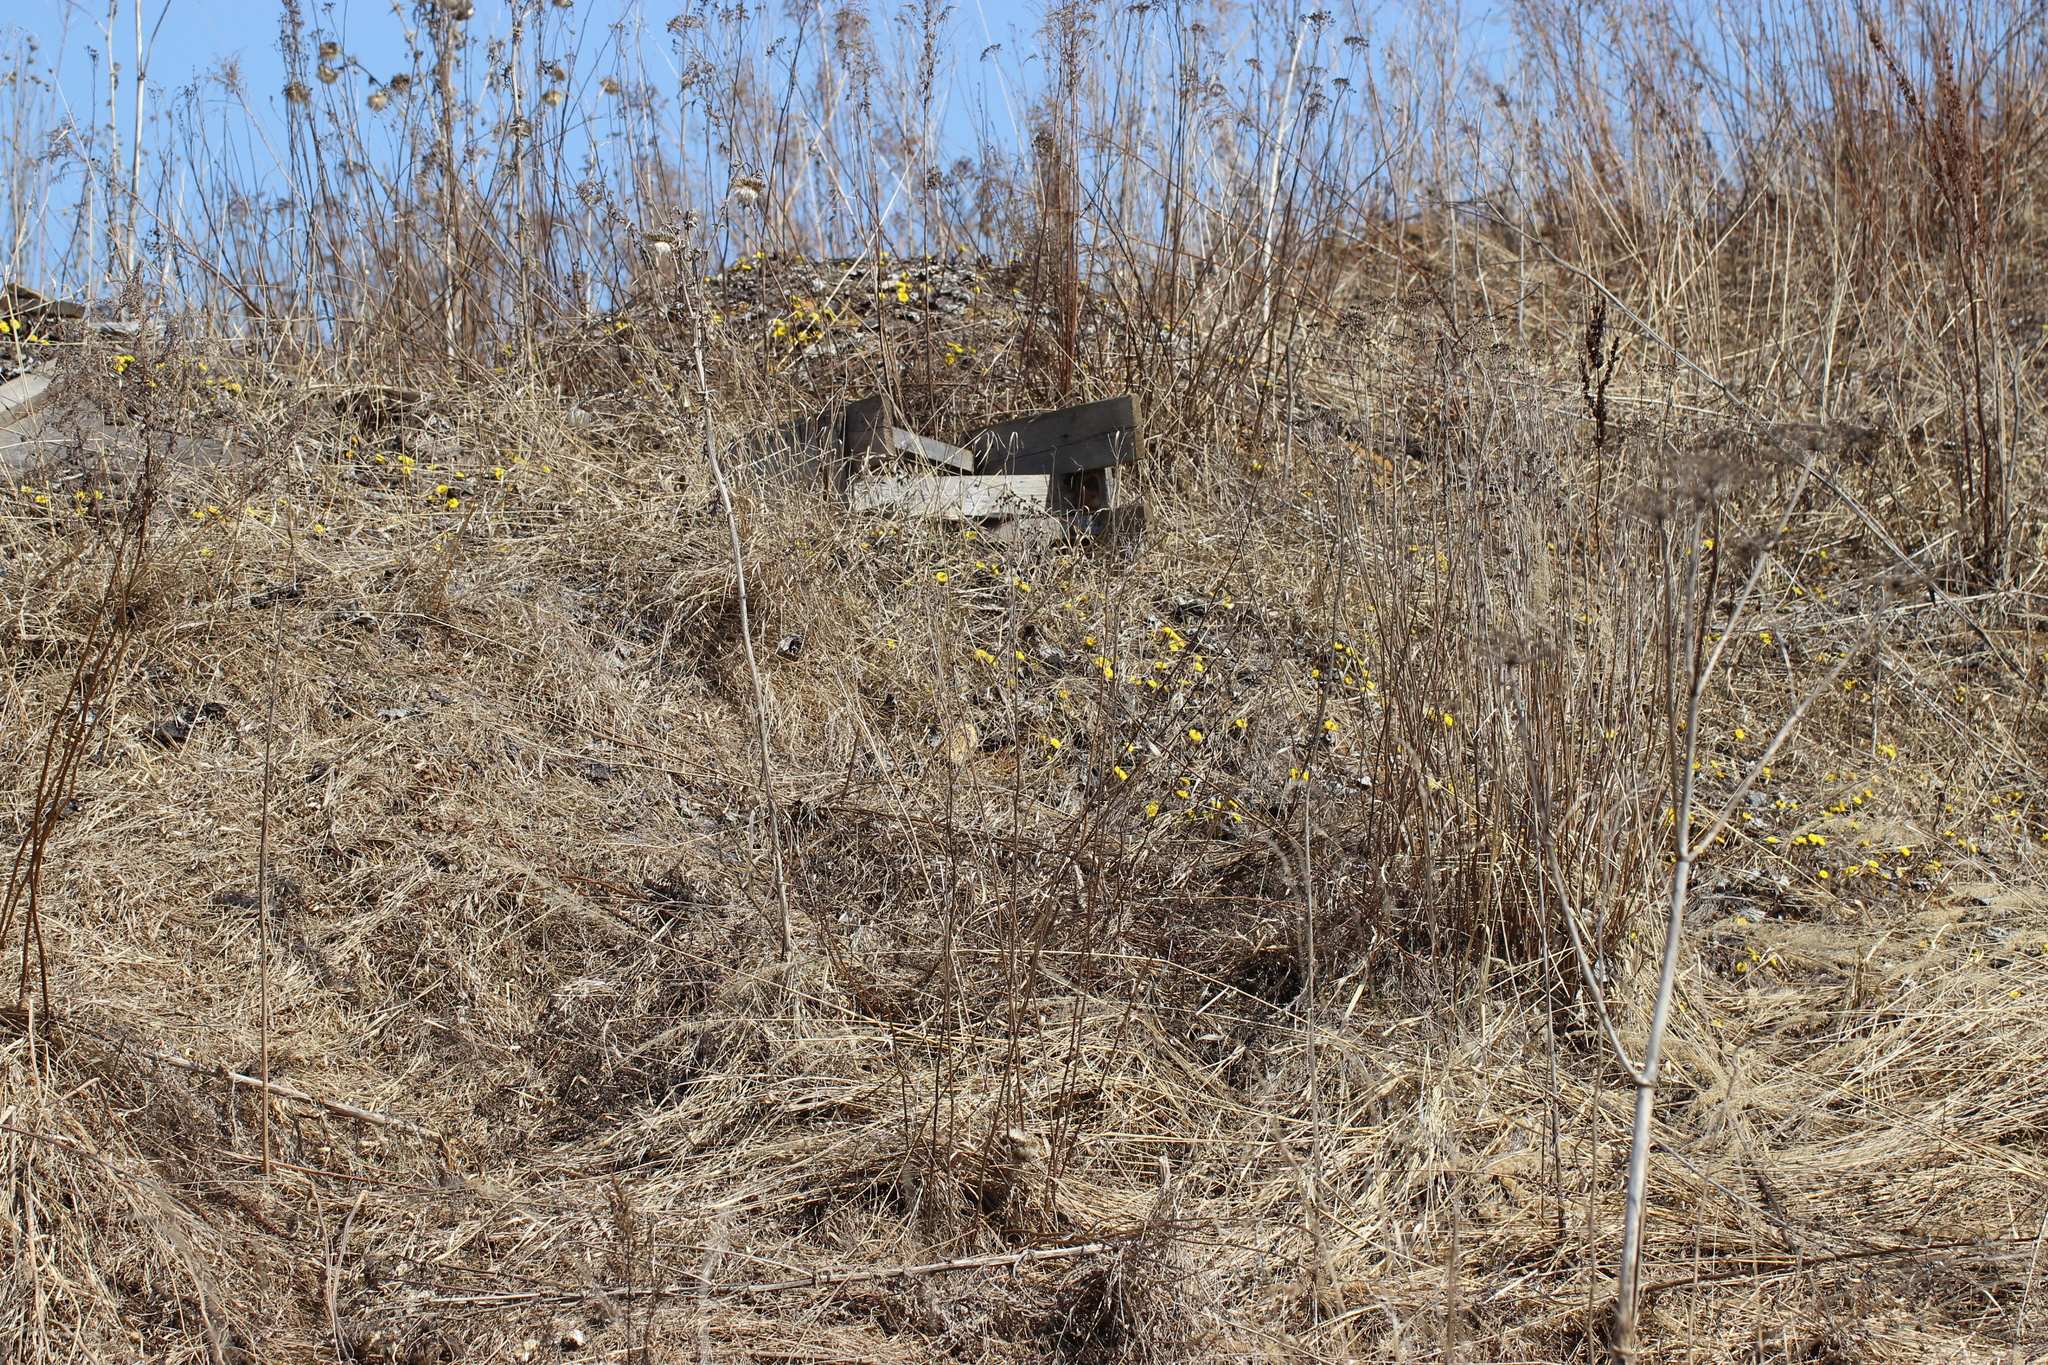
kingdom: Plantae
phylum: Tracheophyta
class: Magnoliopsida
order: Asterales
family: Asteraceae
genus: Tussilago
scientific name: Tussilago farfara
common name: Coltsfoot
